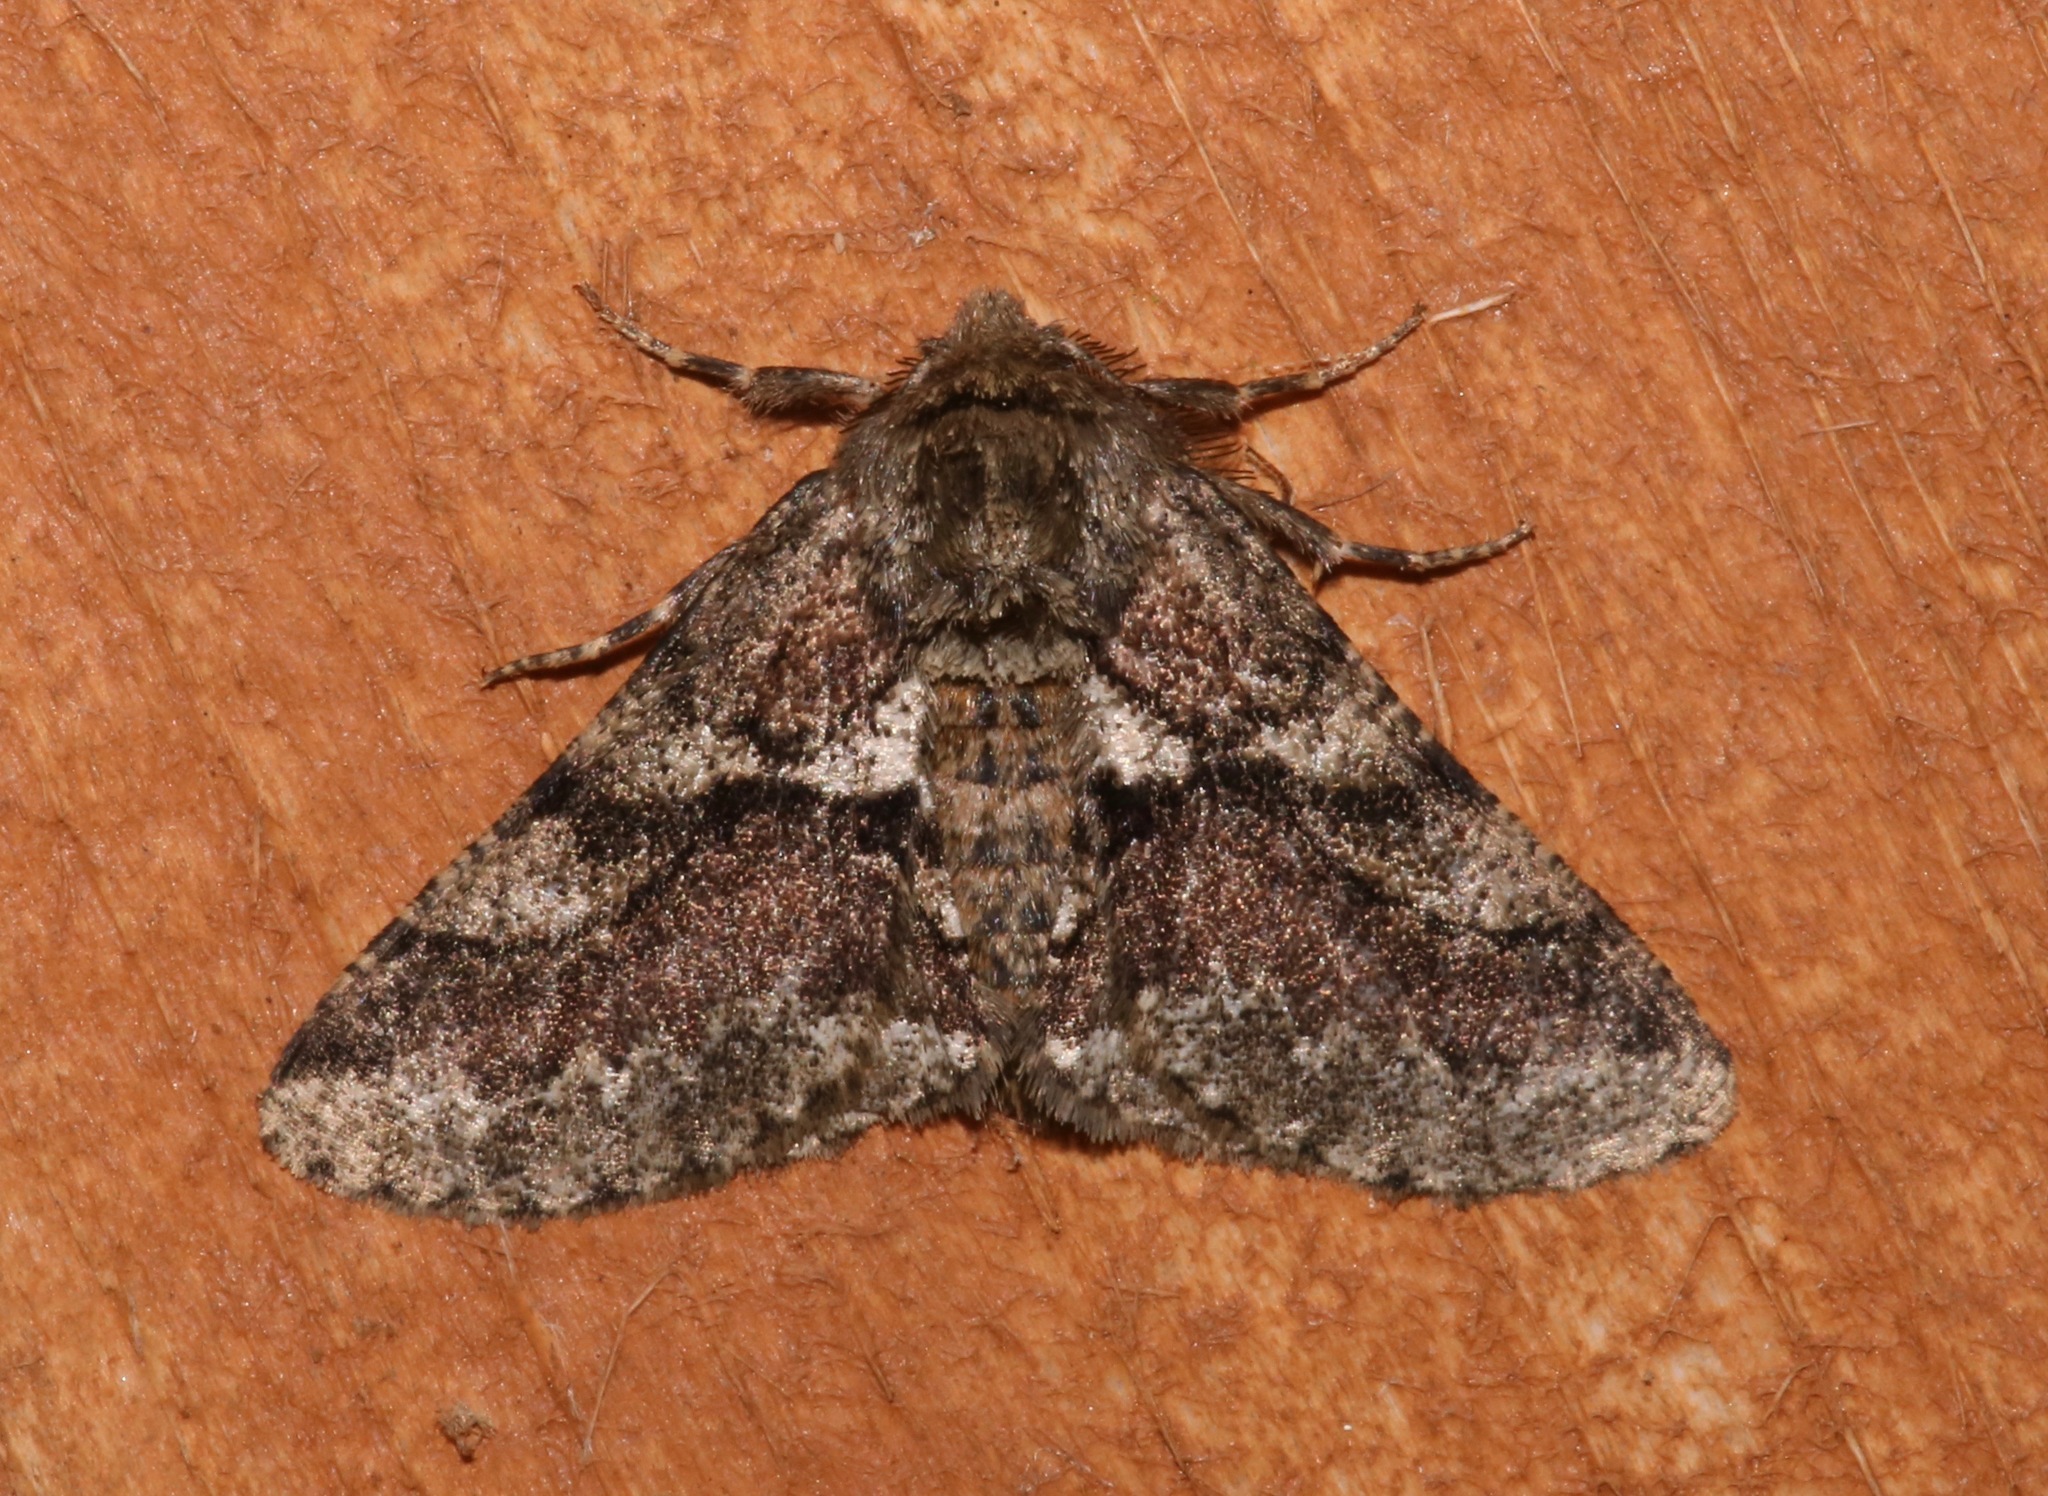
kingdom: Animalia
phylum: Arthropoda
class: Insecta
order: Lepidoptera
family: Geometridae
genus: Lycia
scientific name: Lycia ypsilon
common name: Wooly gray
